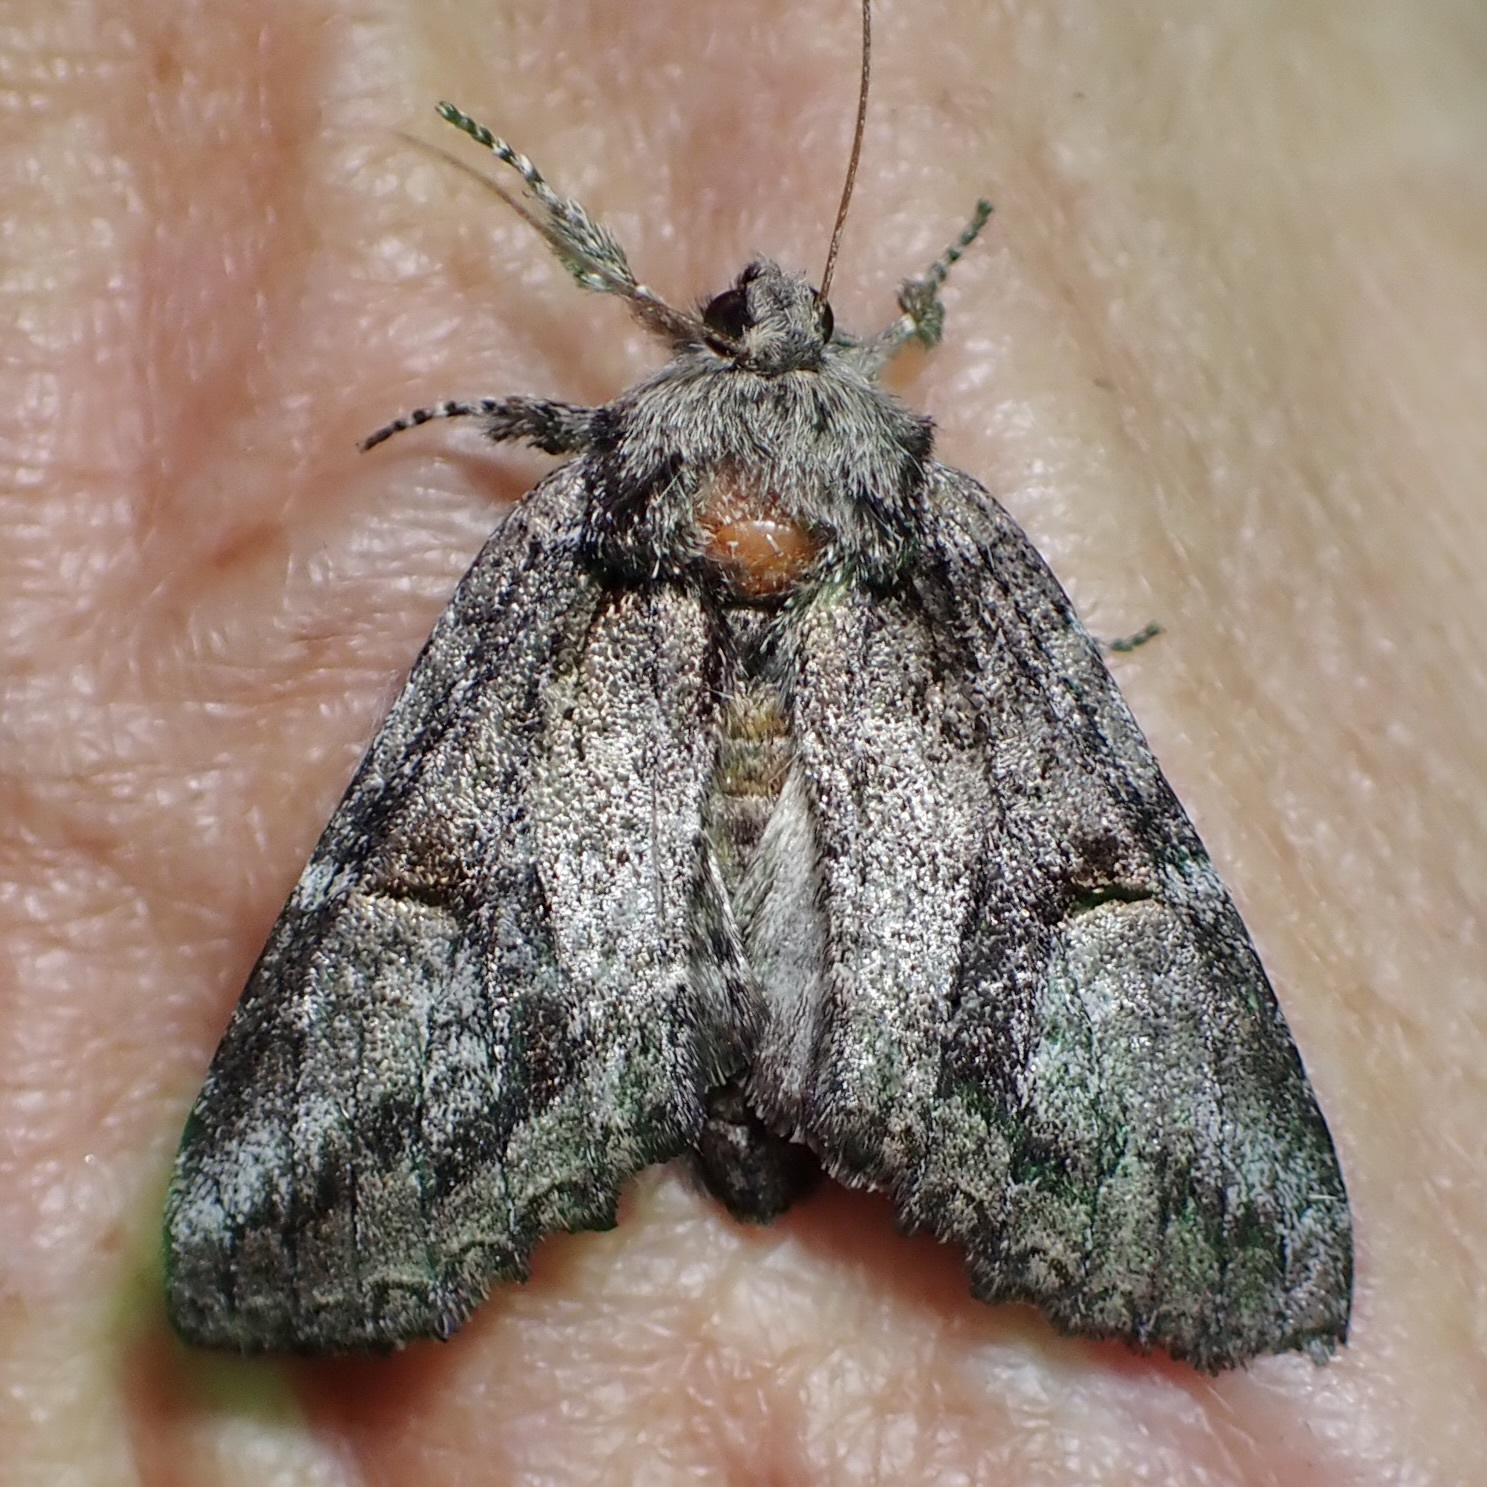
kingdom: Animalia
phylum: Arthropoda
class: Insecta
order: Lepidoptera
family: Notodontidae
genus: Heterocampa
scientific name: Heterocampa averna
